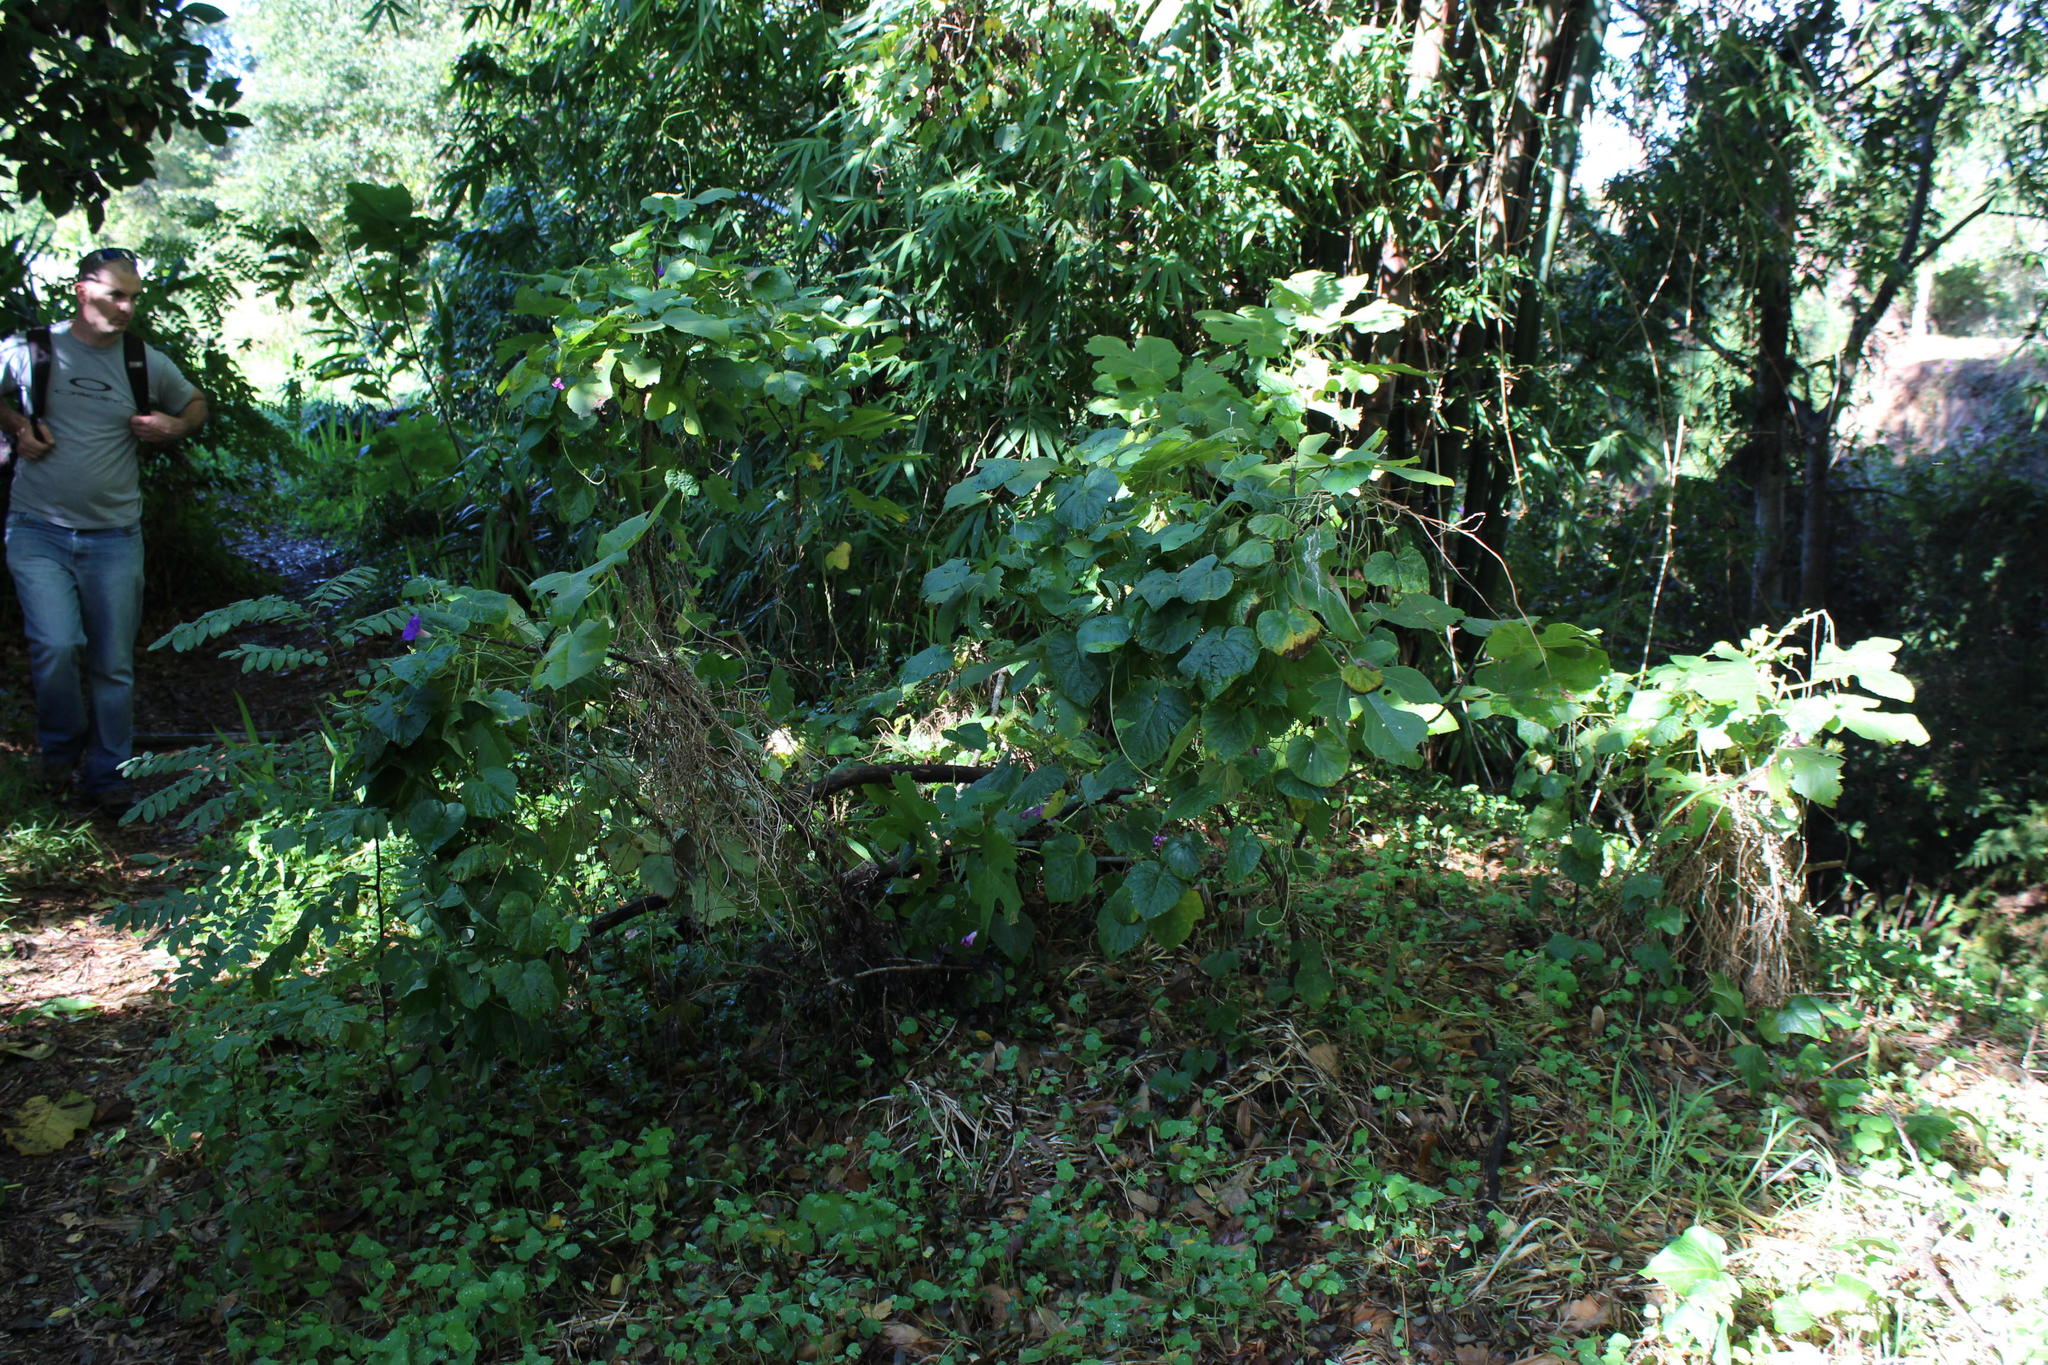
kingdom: Plantae
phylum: Tracheophyta
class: Magnoliopsida
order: Rosales
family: Moraceae
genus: Ficus
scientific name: Ficus carica
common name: Fig
